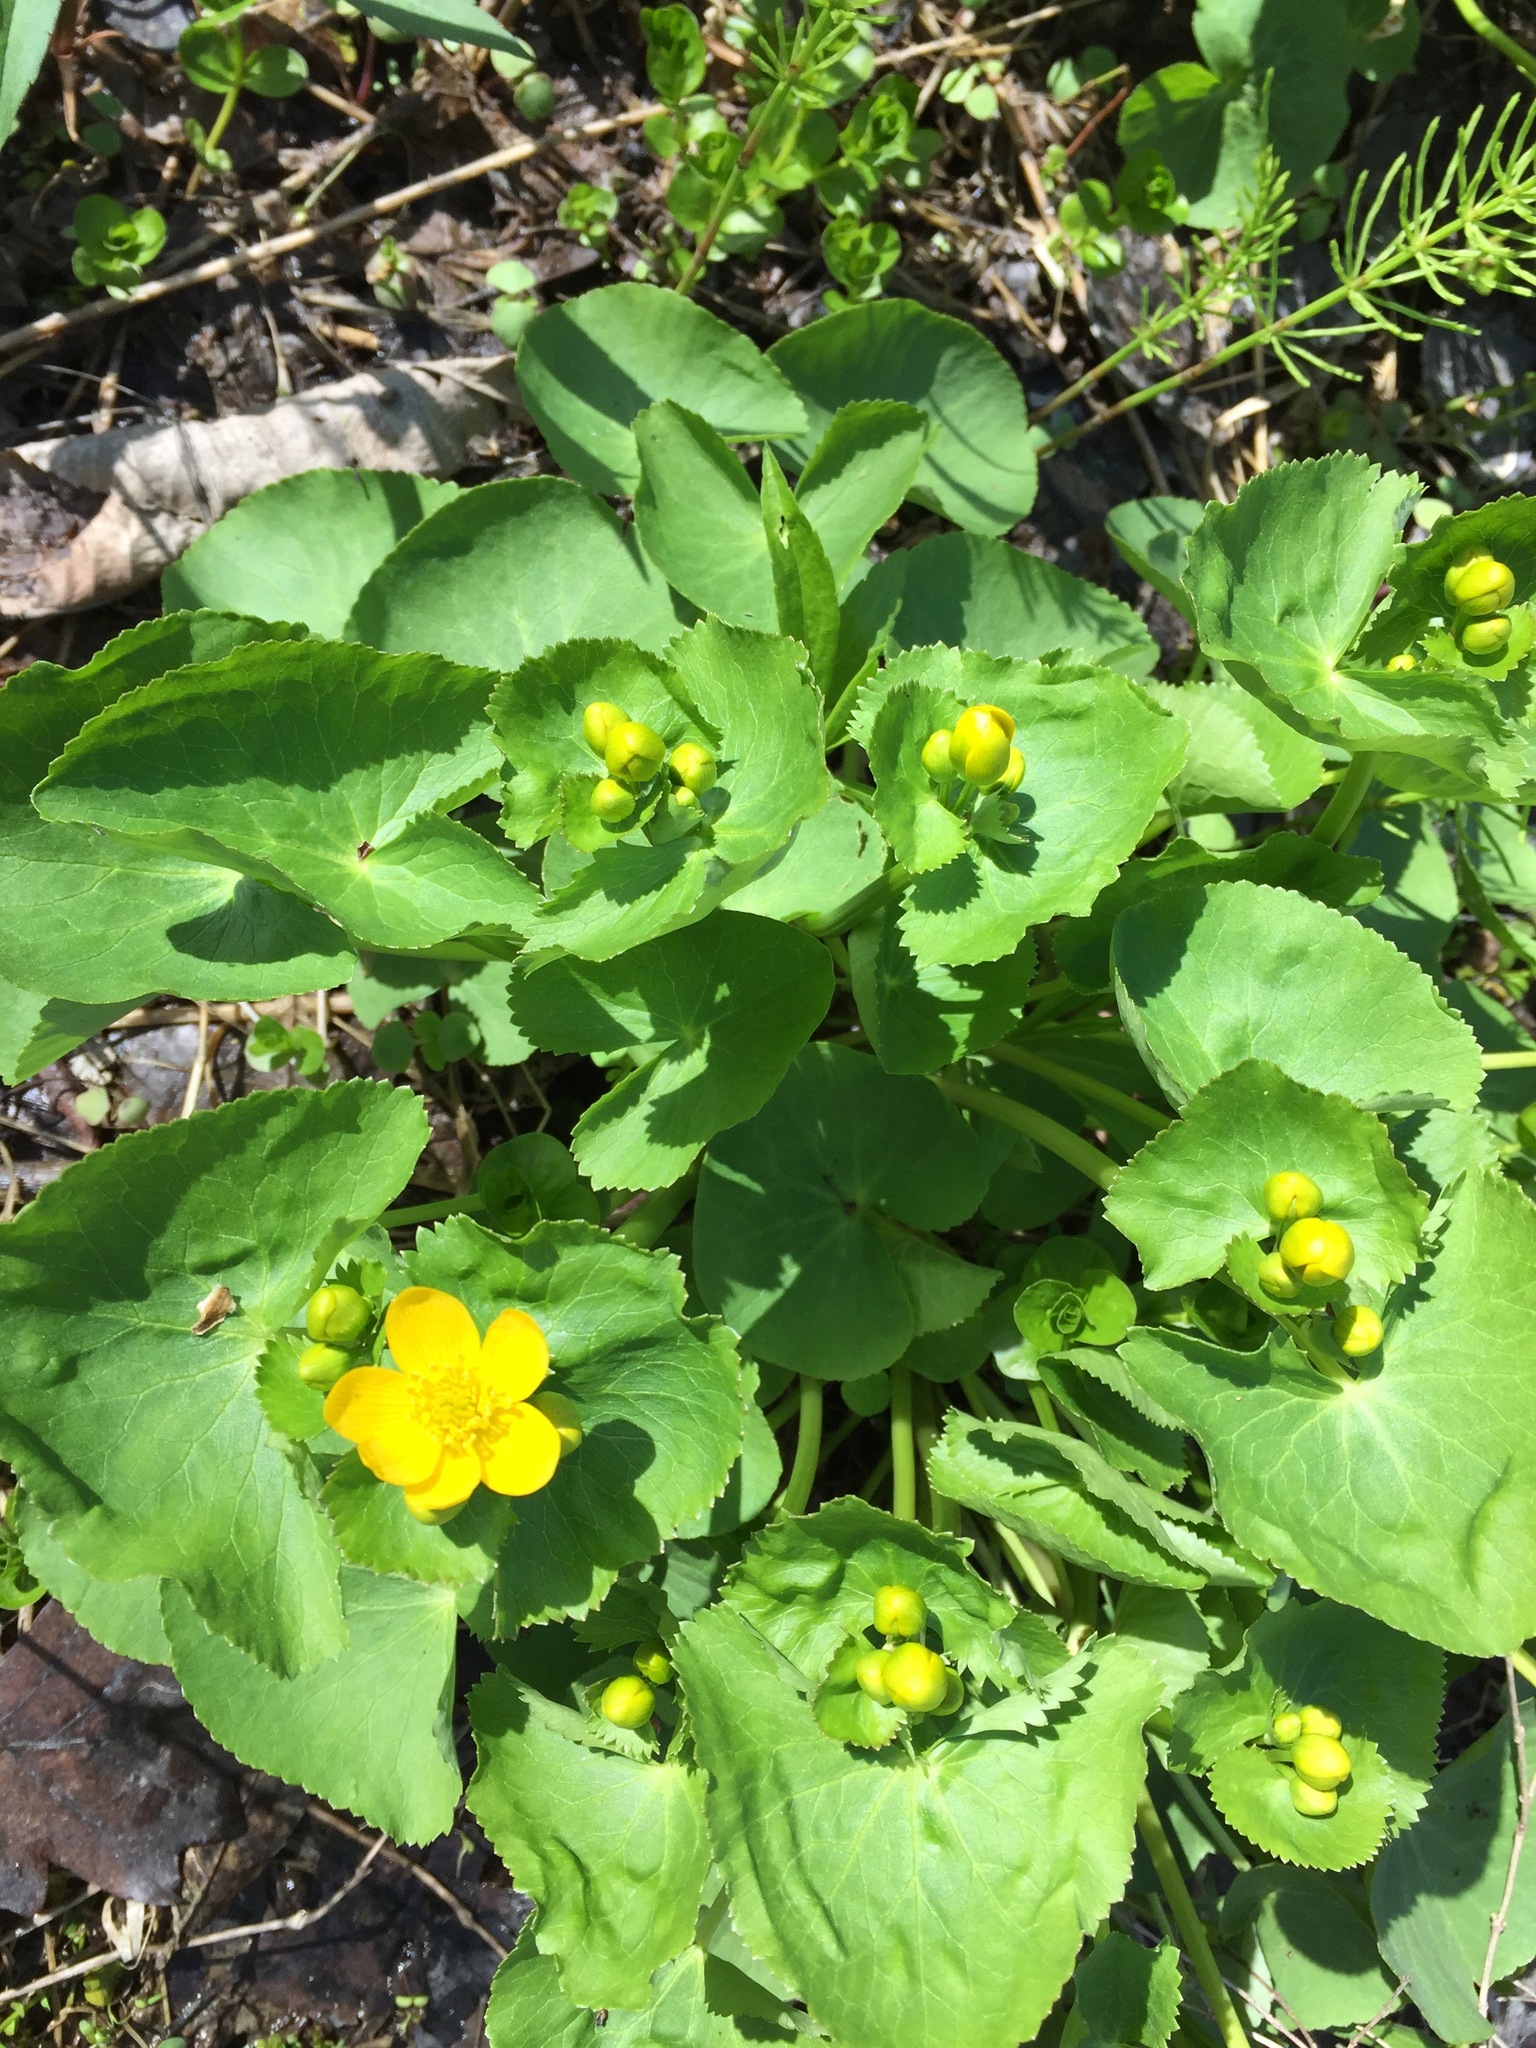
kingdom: Plantae
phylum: Tracheophyta
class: Magnoliopsida
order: Ranunculales
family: Ranunculaceae
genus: Caltha
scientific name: Caltha palustris
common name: Marsh marigold
